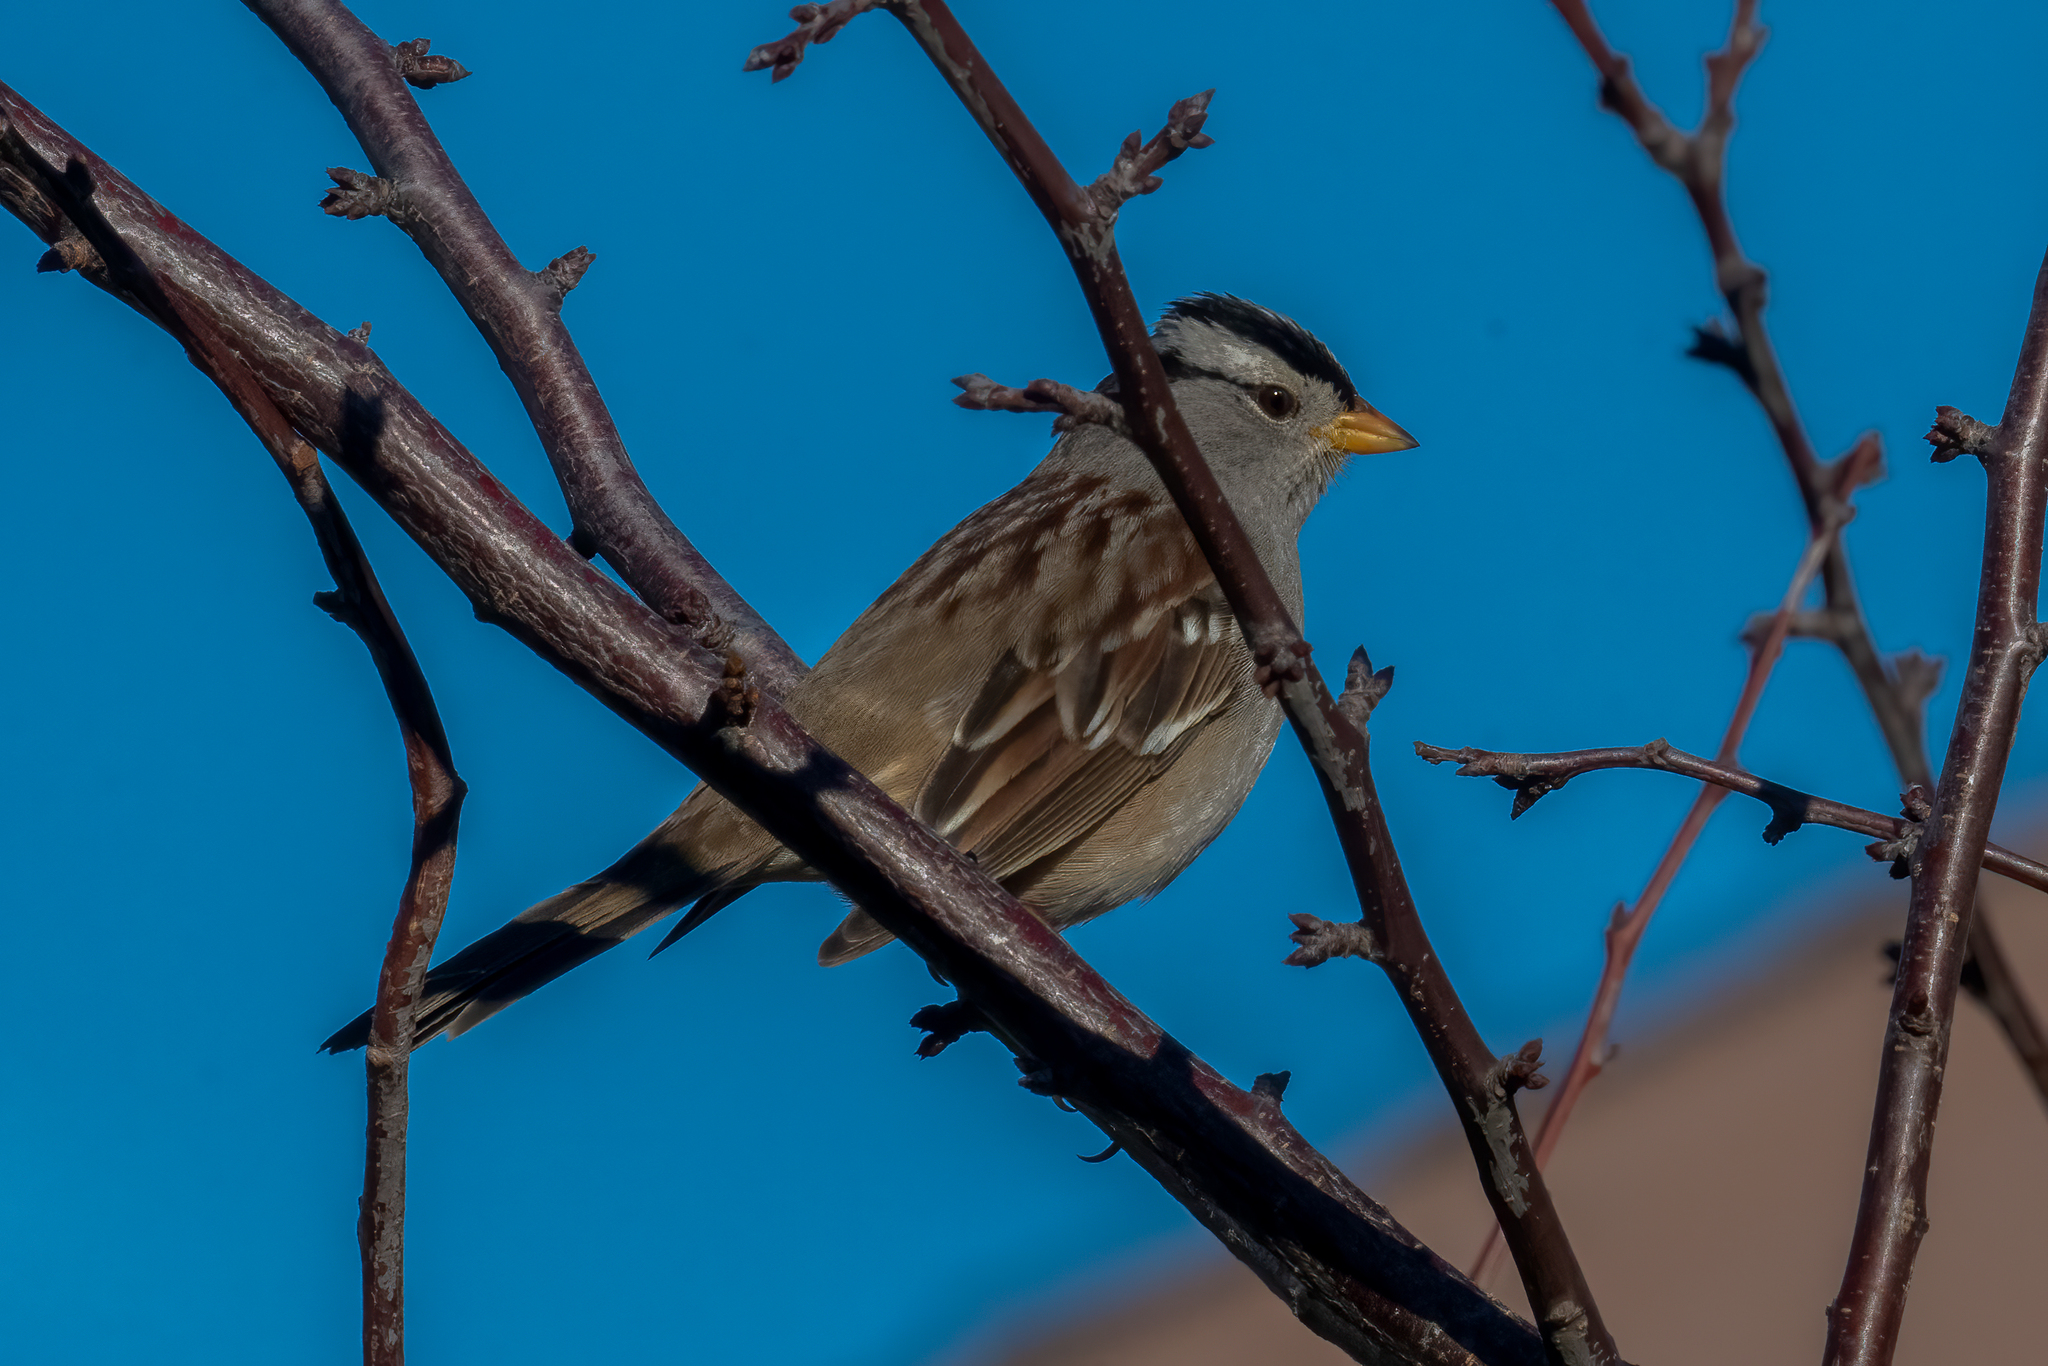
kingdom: Animalia
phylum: Chordata
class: Aves
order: Passeriformes
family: Passerellidae
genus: Zonotrichia
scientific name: Zonotrichia leucophrys
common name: White-crowned sparrow
